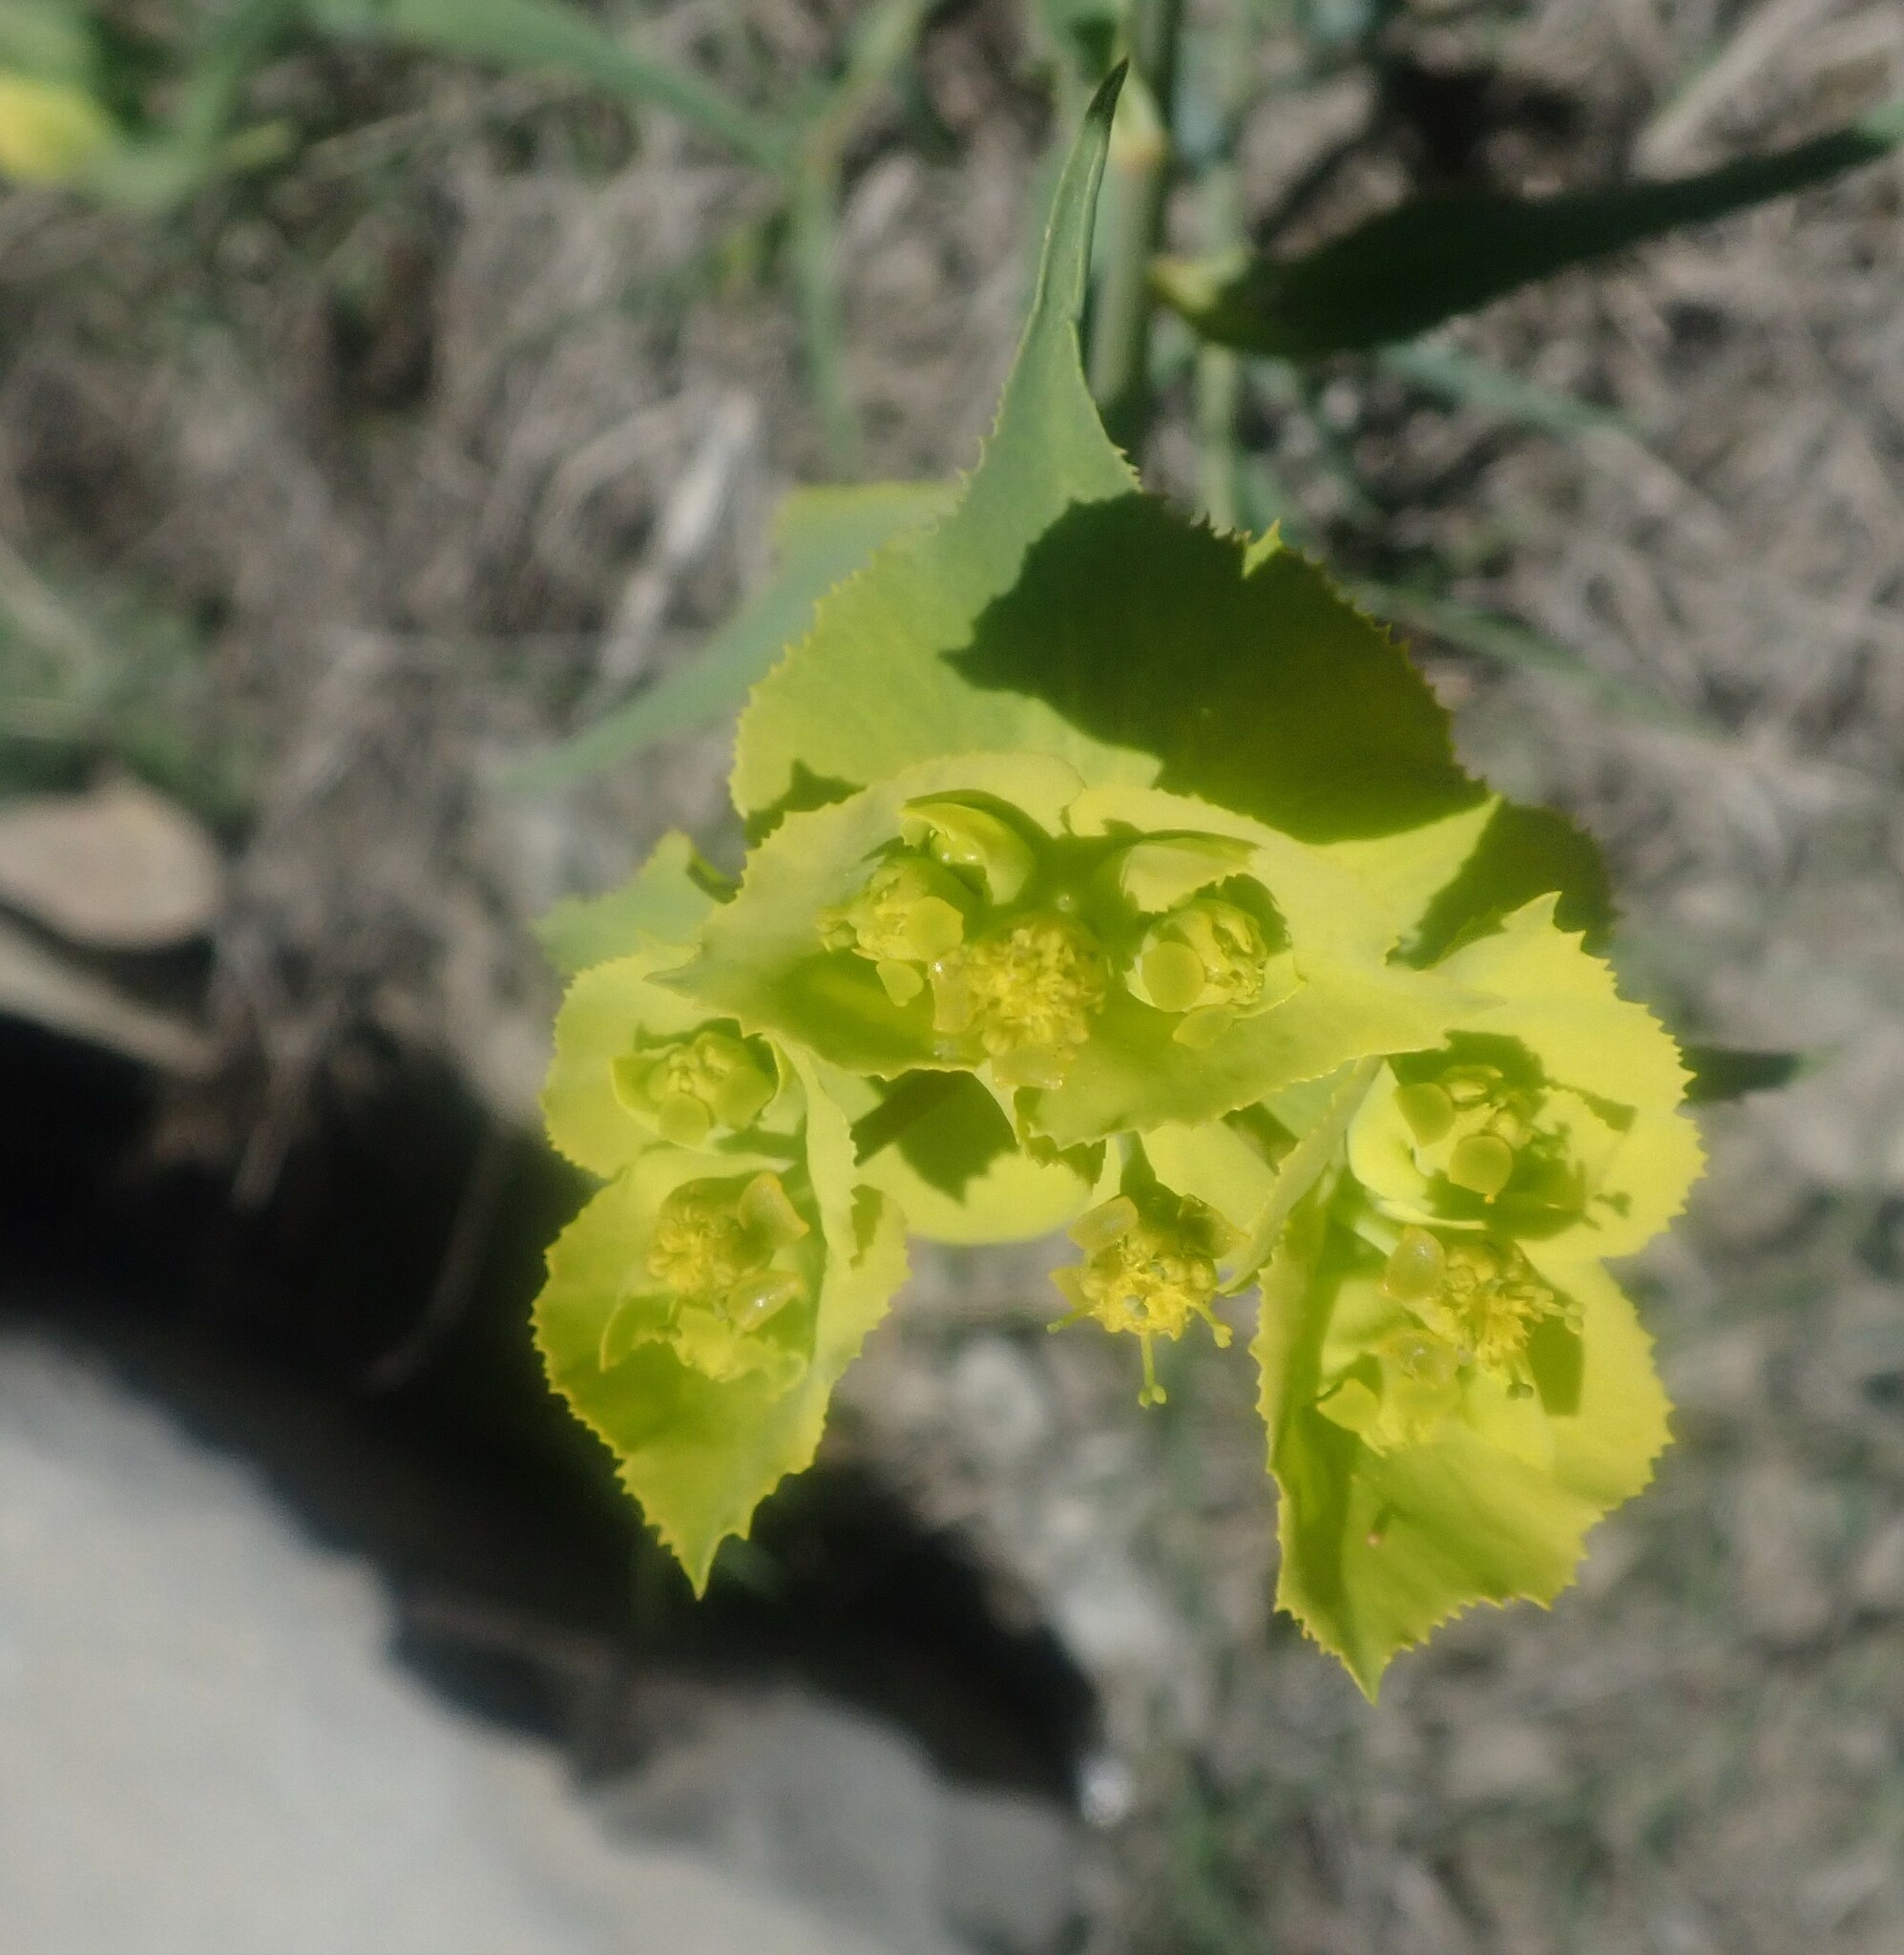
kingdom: Plantae
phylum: Tracheophyta
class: Magnoliopsida
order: Malpighiales
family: Euphorbiaceae
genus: Euphorbia
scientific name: Euphorbia serrata
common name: Serrate spurge
